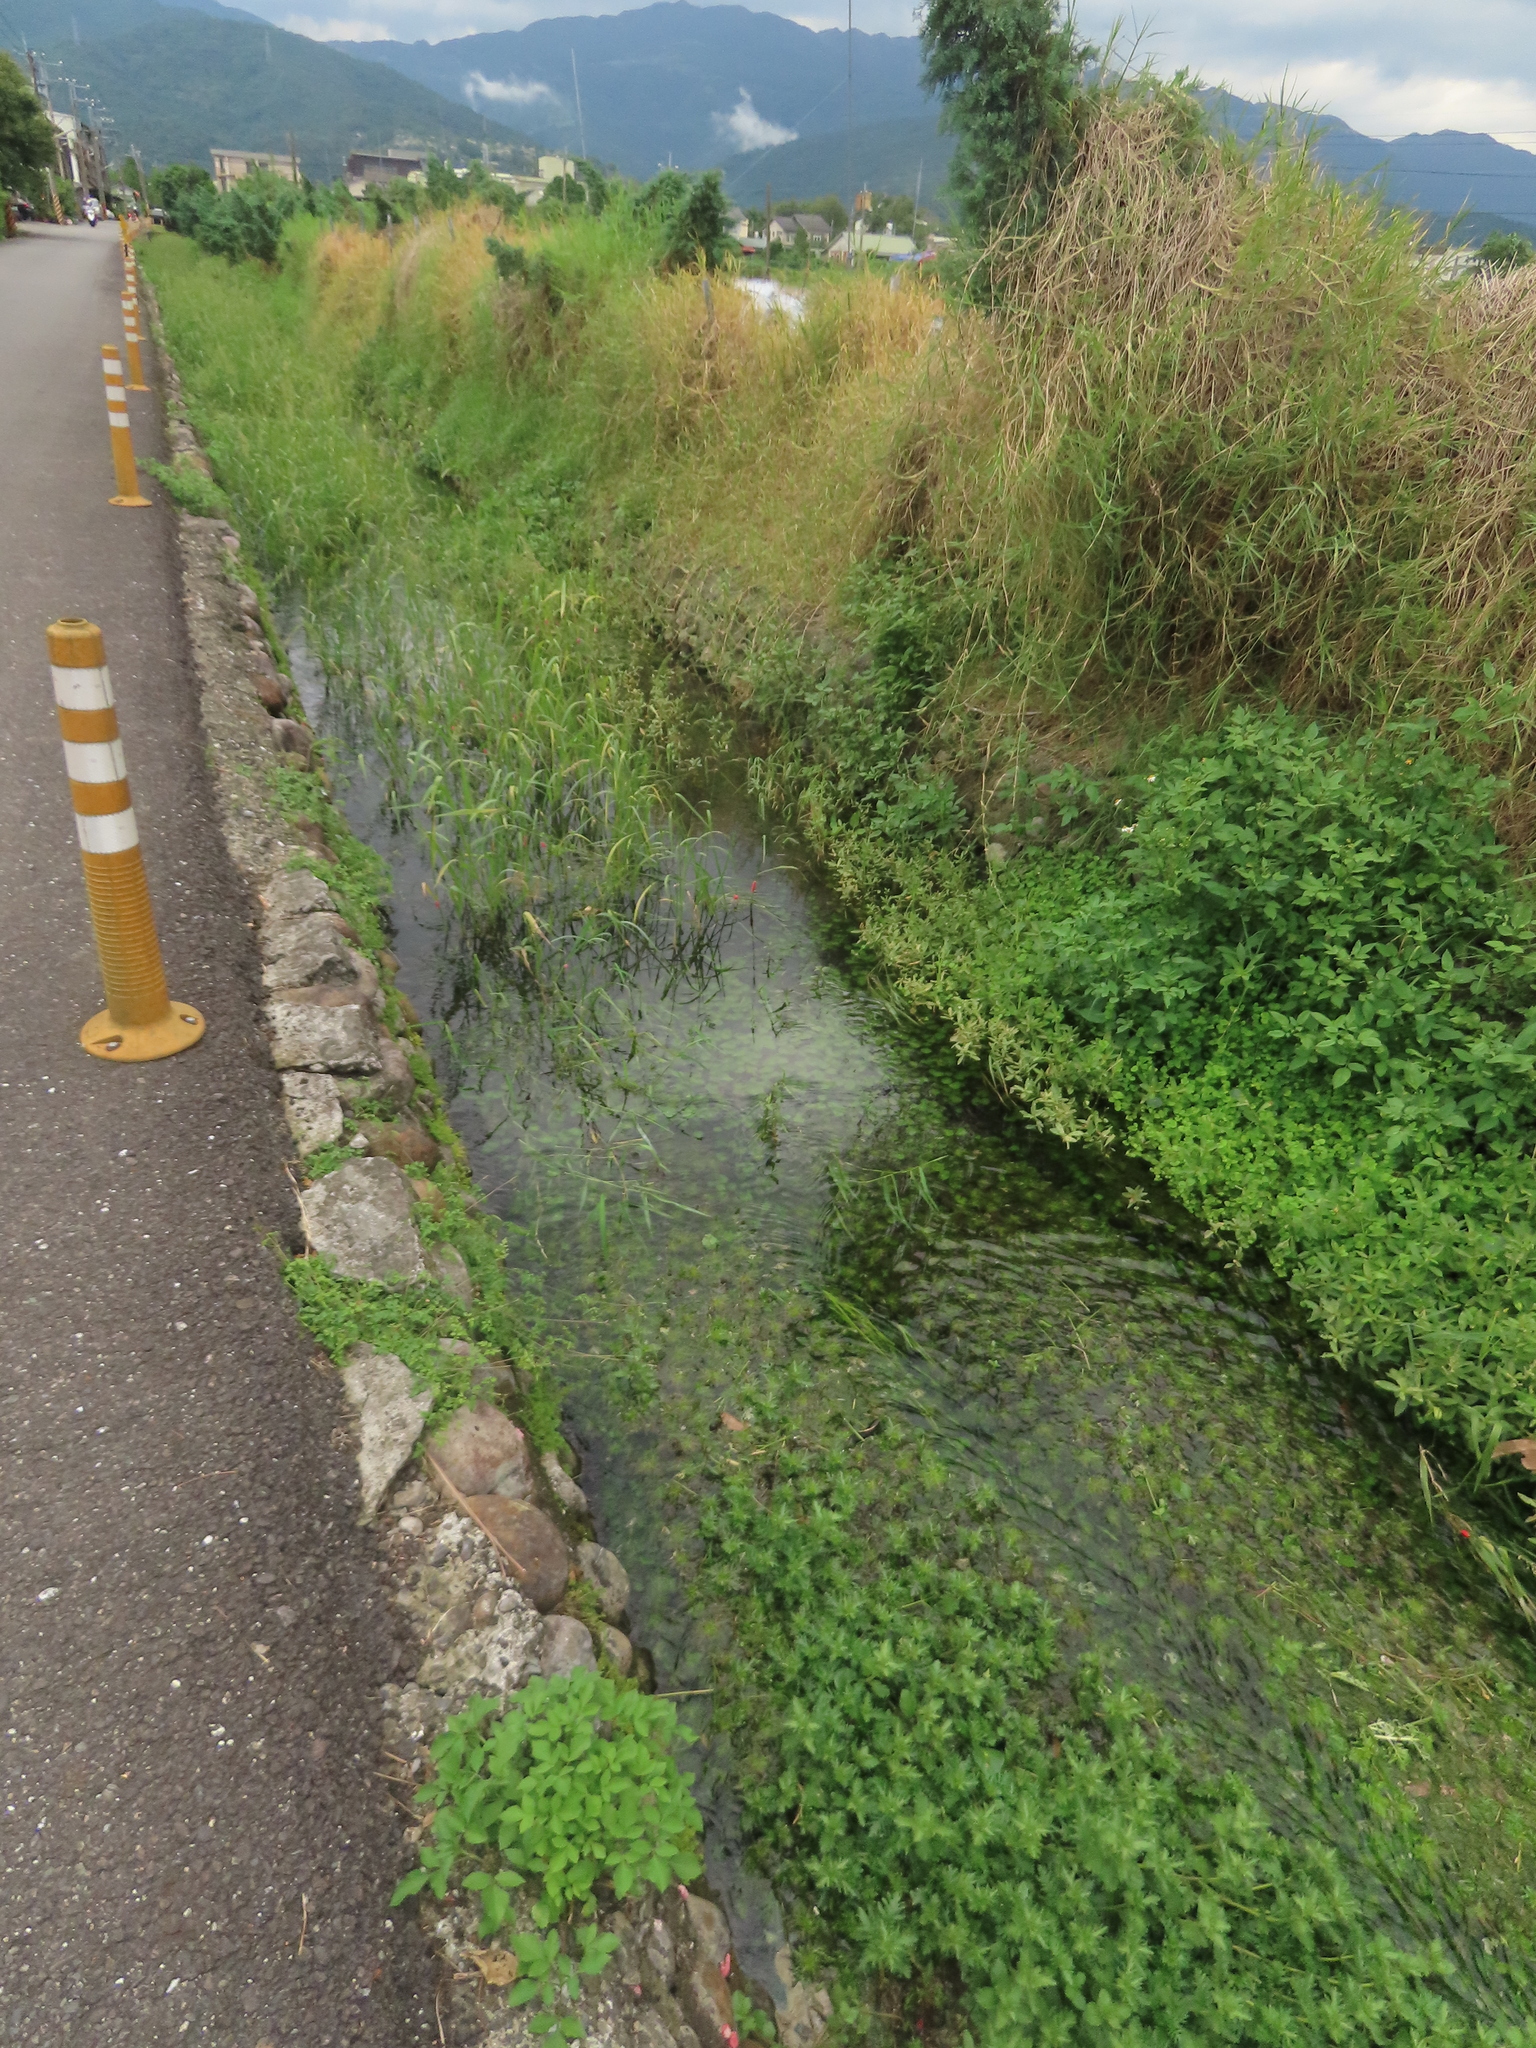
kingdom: Plantae
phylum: Tracheophyta
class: Magnoliopsida
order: Lamiales
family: Acanthaceae
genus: Hygrophila
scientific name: Hygrophila difformis
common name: Water-wisteria
